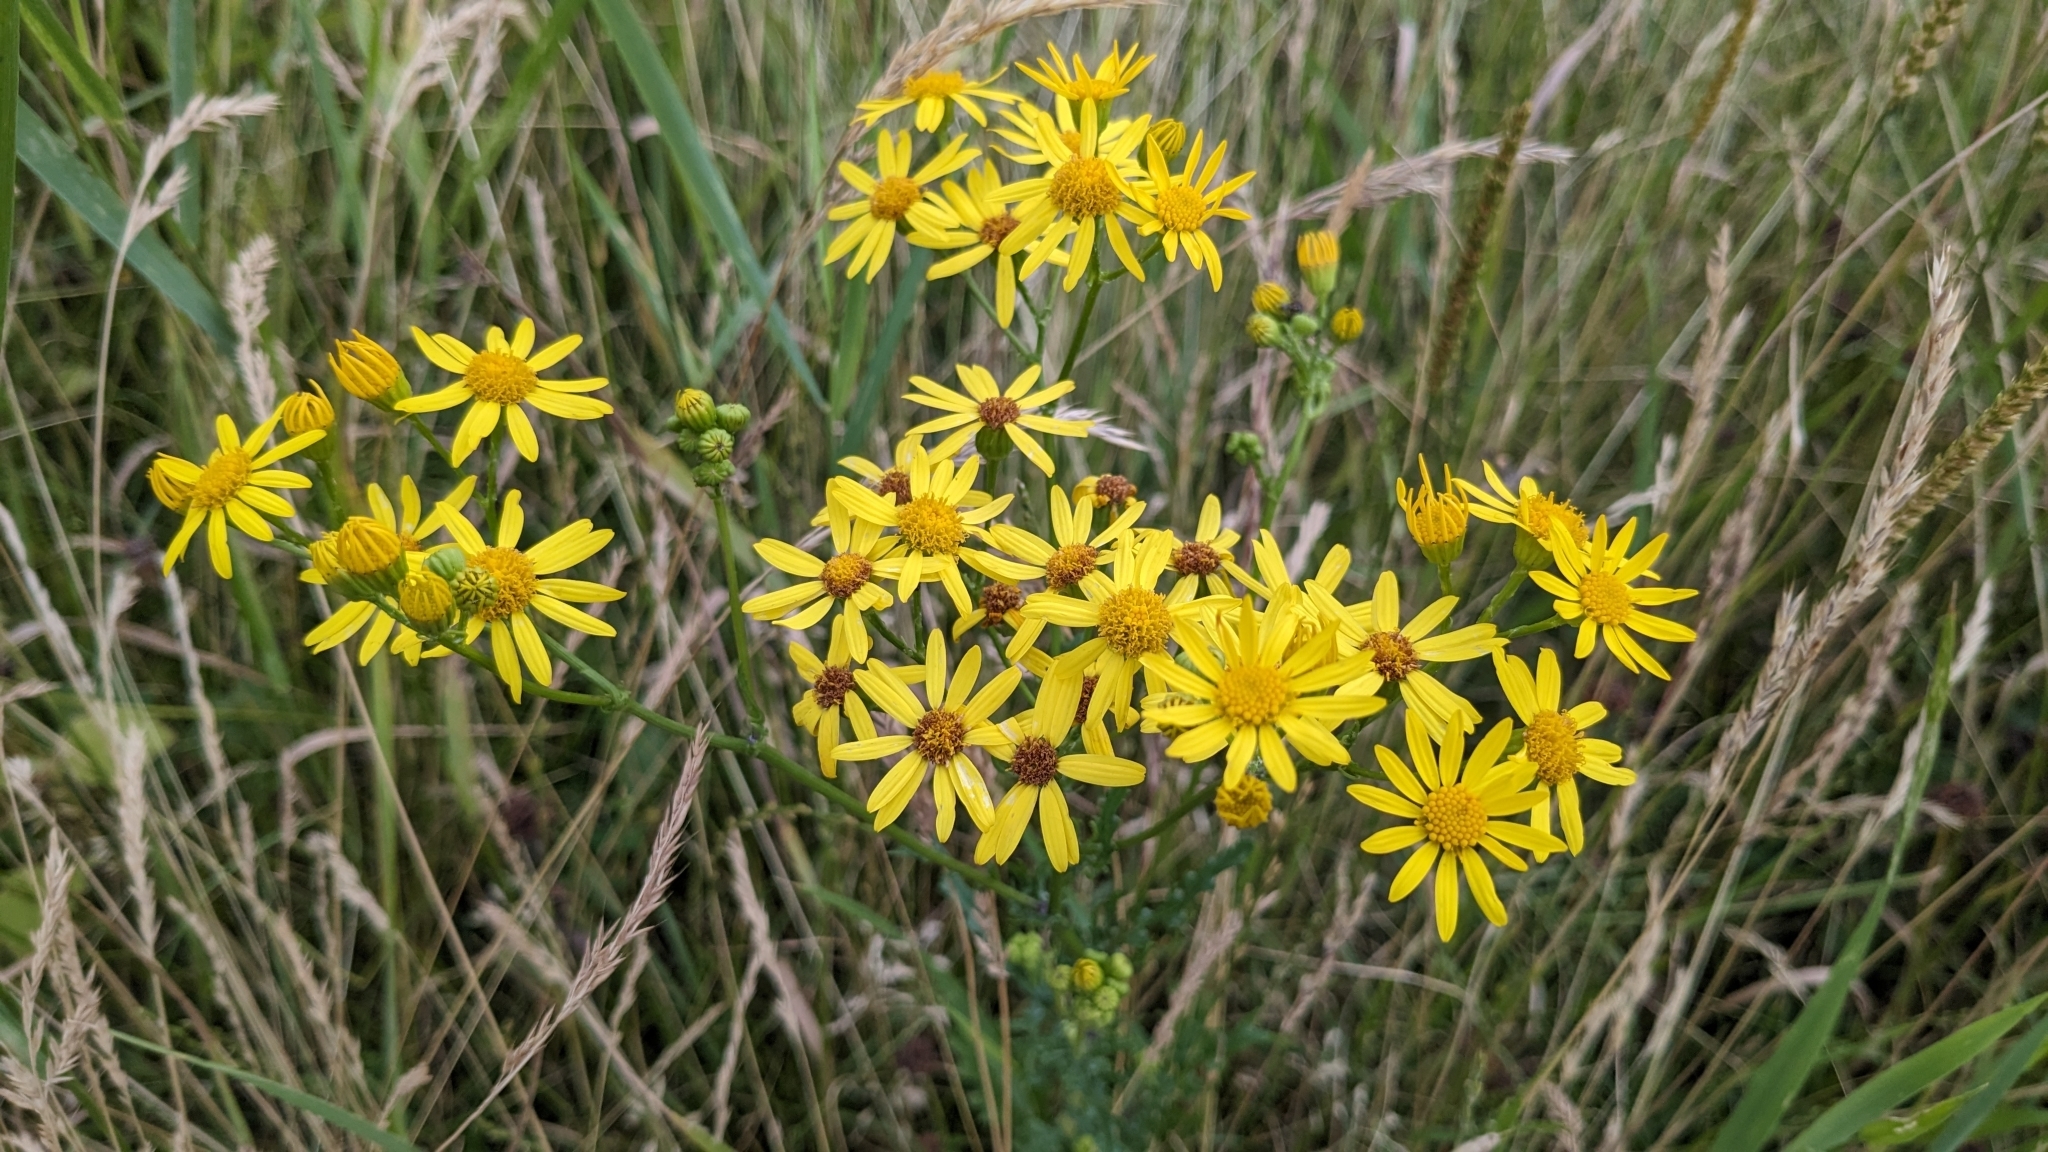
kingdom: Plantae
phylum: Tracheophyta
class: Magnoliopsida
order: Asterales
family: Asteraceae
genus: Jacobaea
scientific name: Jacobaea vulgaris
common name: Stinking willie
